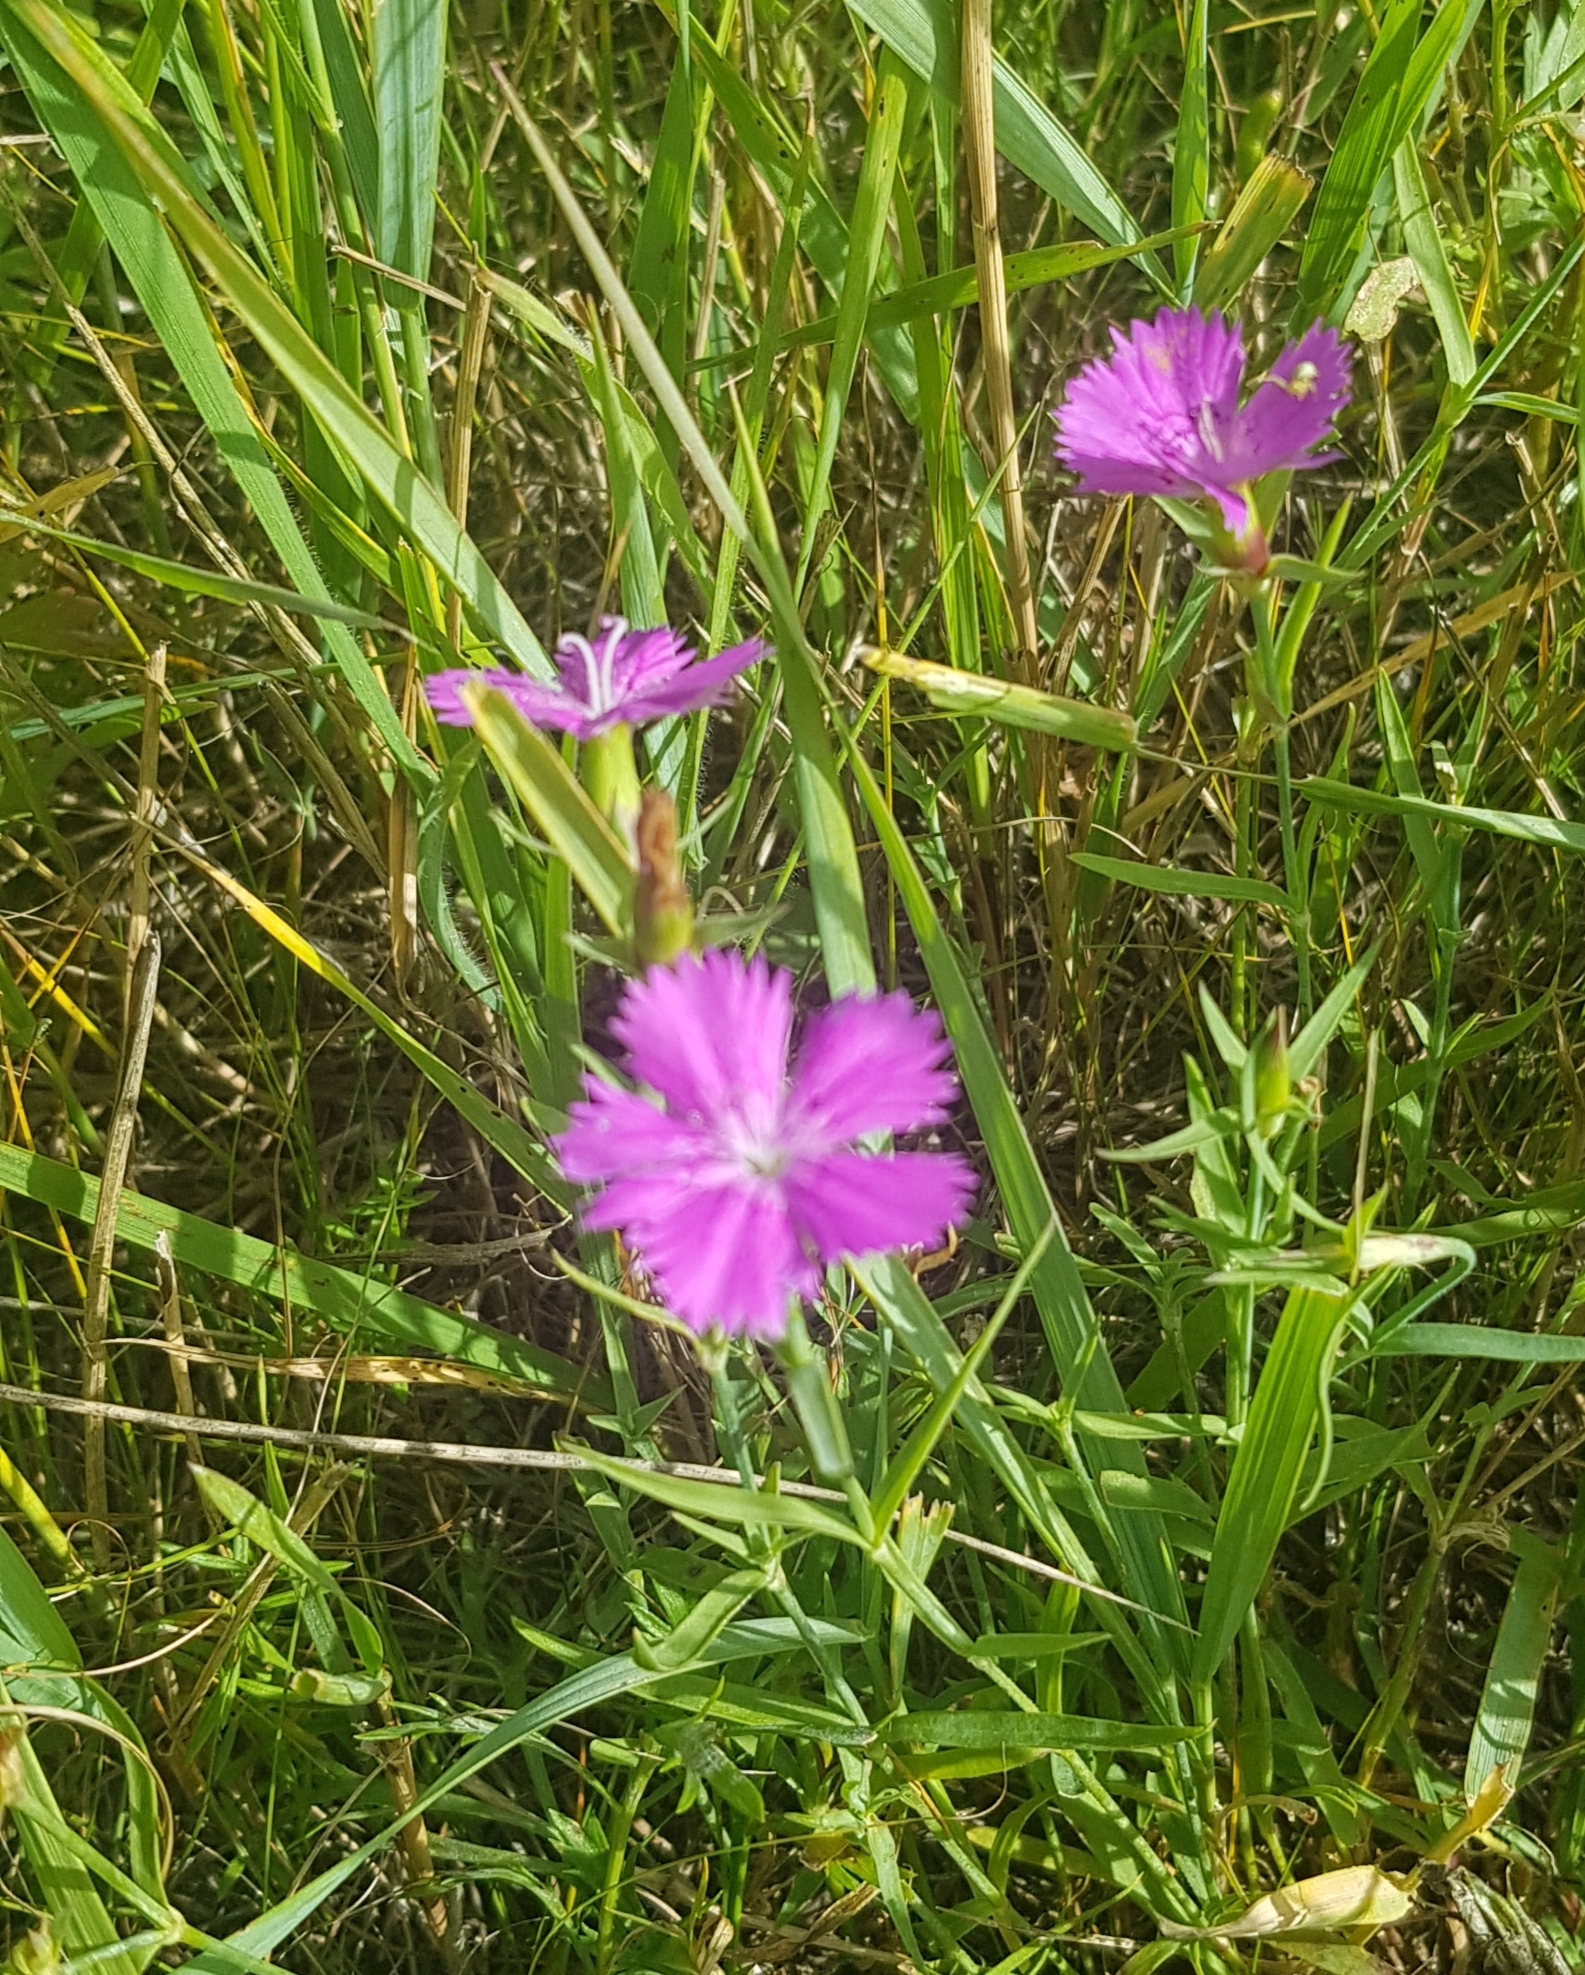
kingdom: Plantae
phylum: Tracheophyta
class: Magnoliopsida
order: Caryophyllales
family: Caryophyllaceae
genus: Dianthus
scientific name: Dianthus chinensis
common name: Rainbow pink
